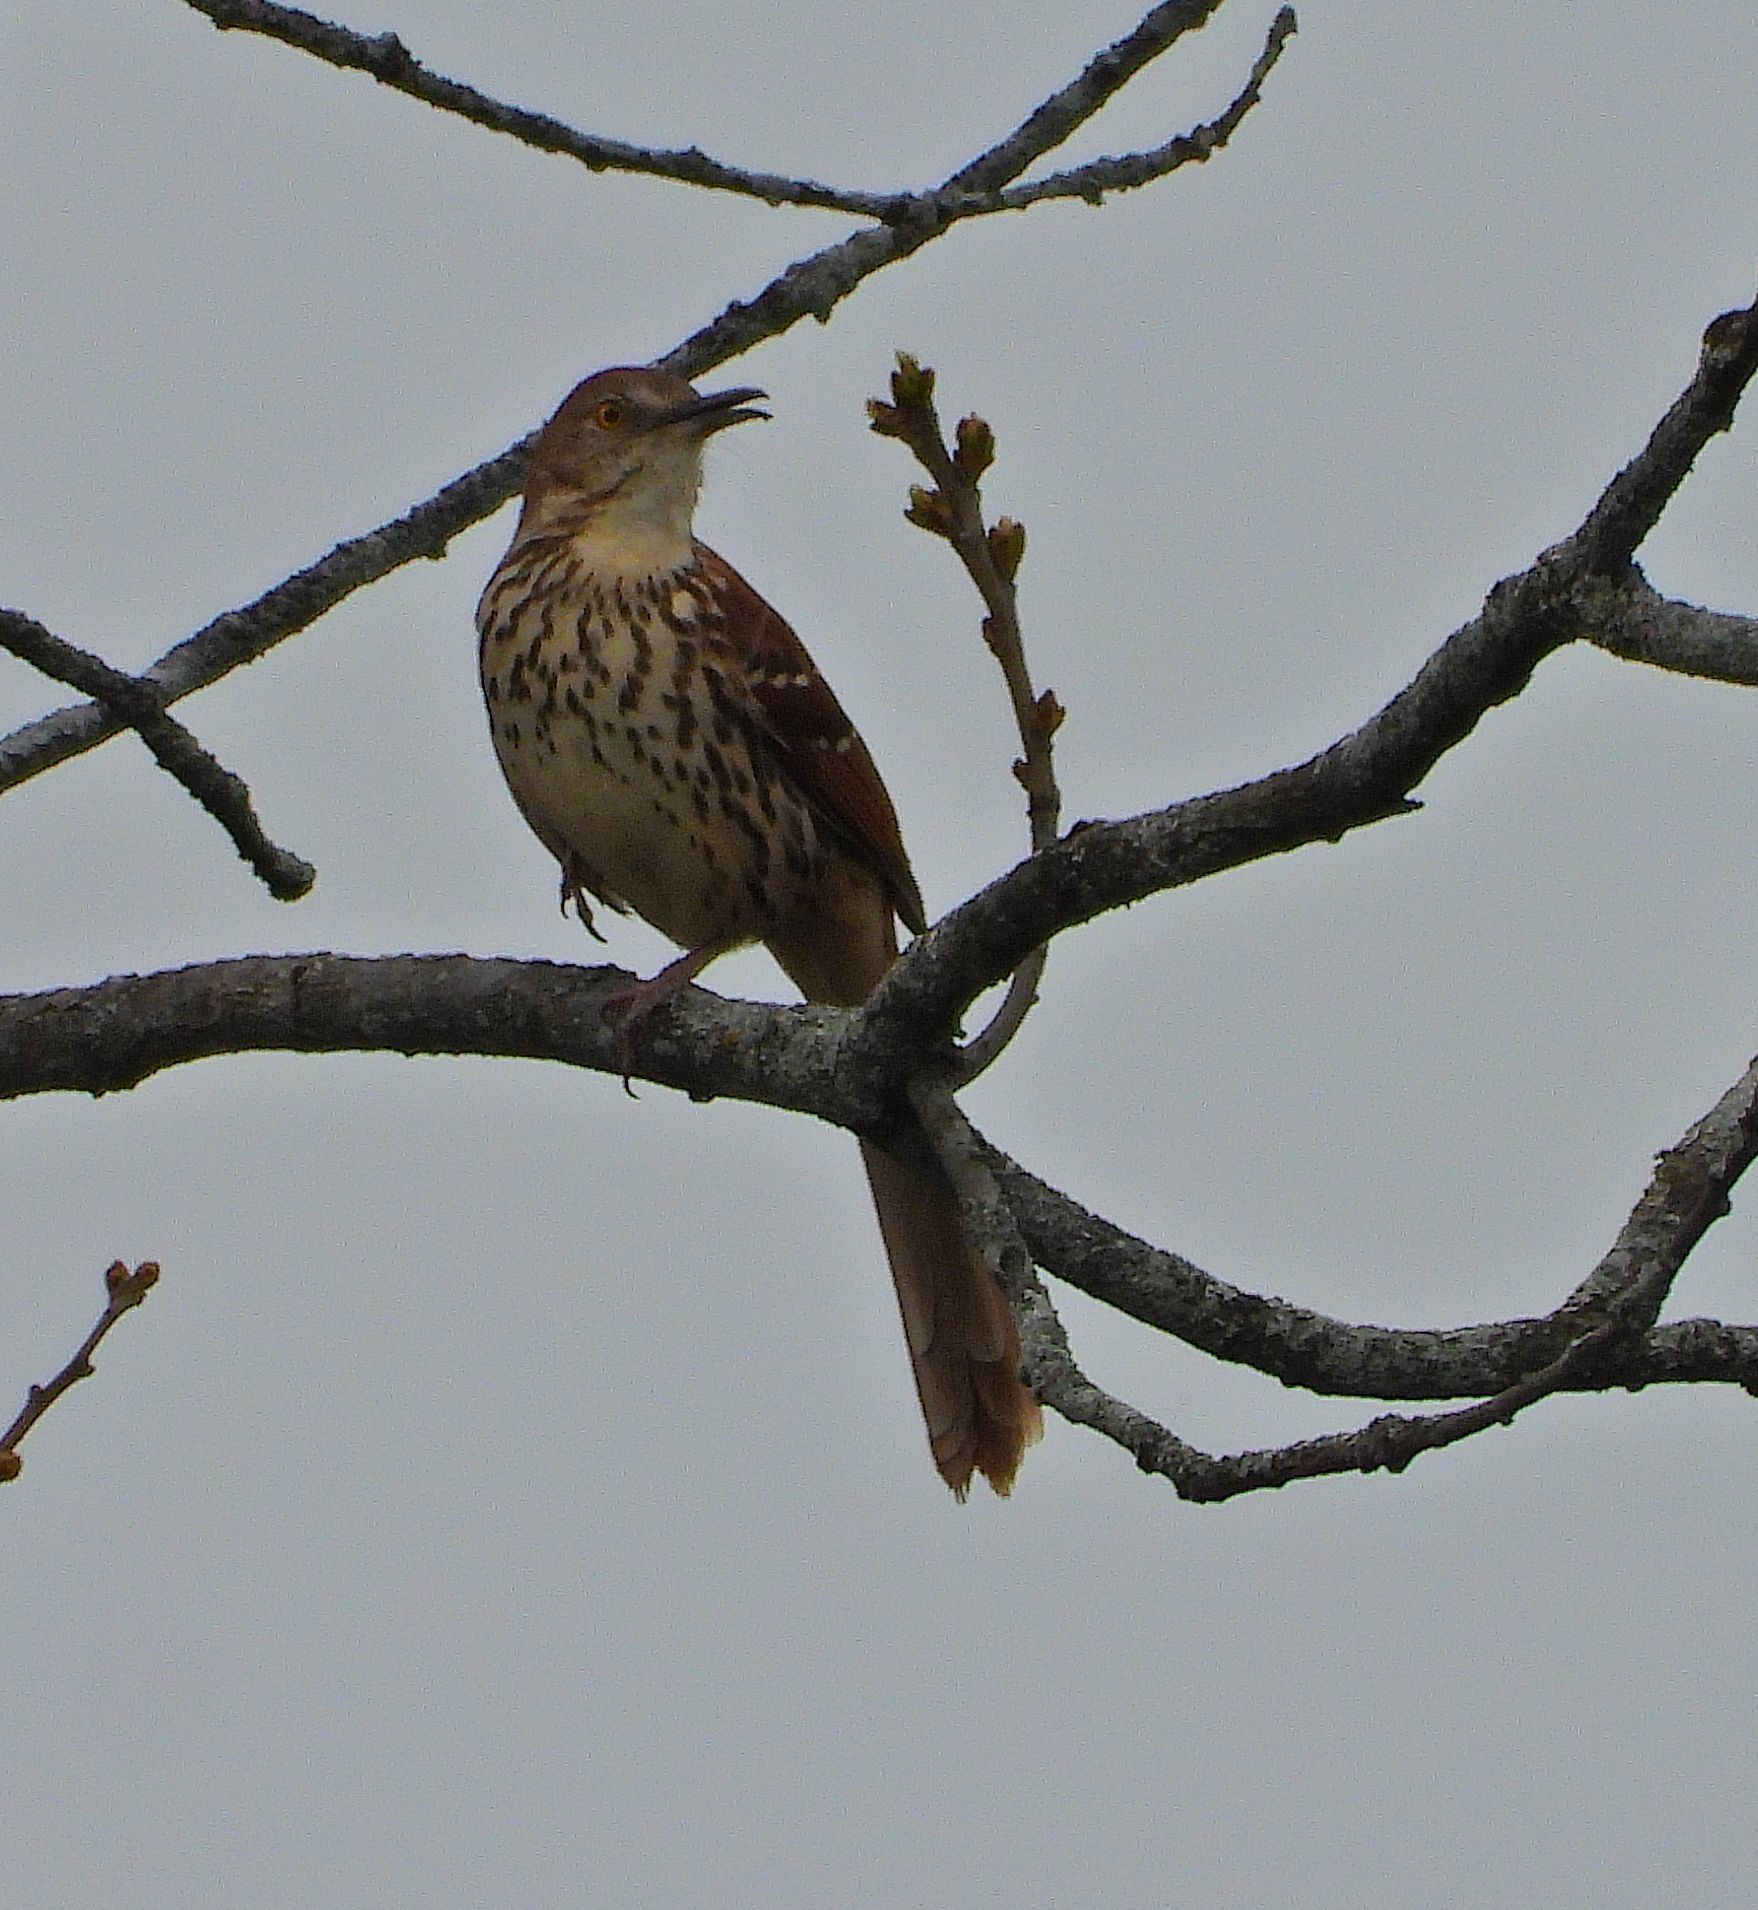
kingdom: Animalia
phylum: Chordata
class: Aves
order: Passeriformes
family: Mimidae
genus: Toxostoma
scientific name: Toxostoma rufum
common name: Brown thrasher
